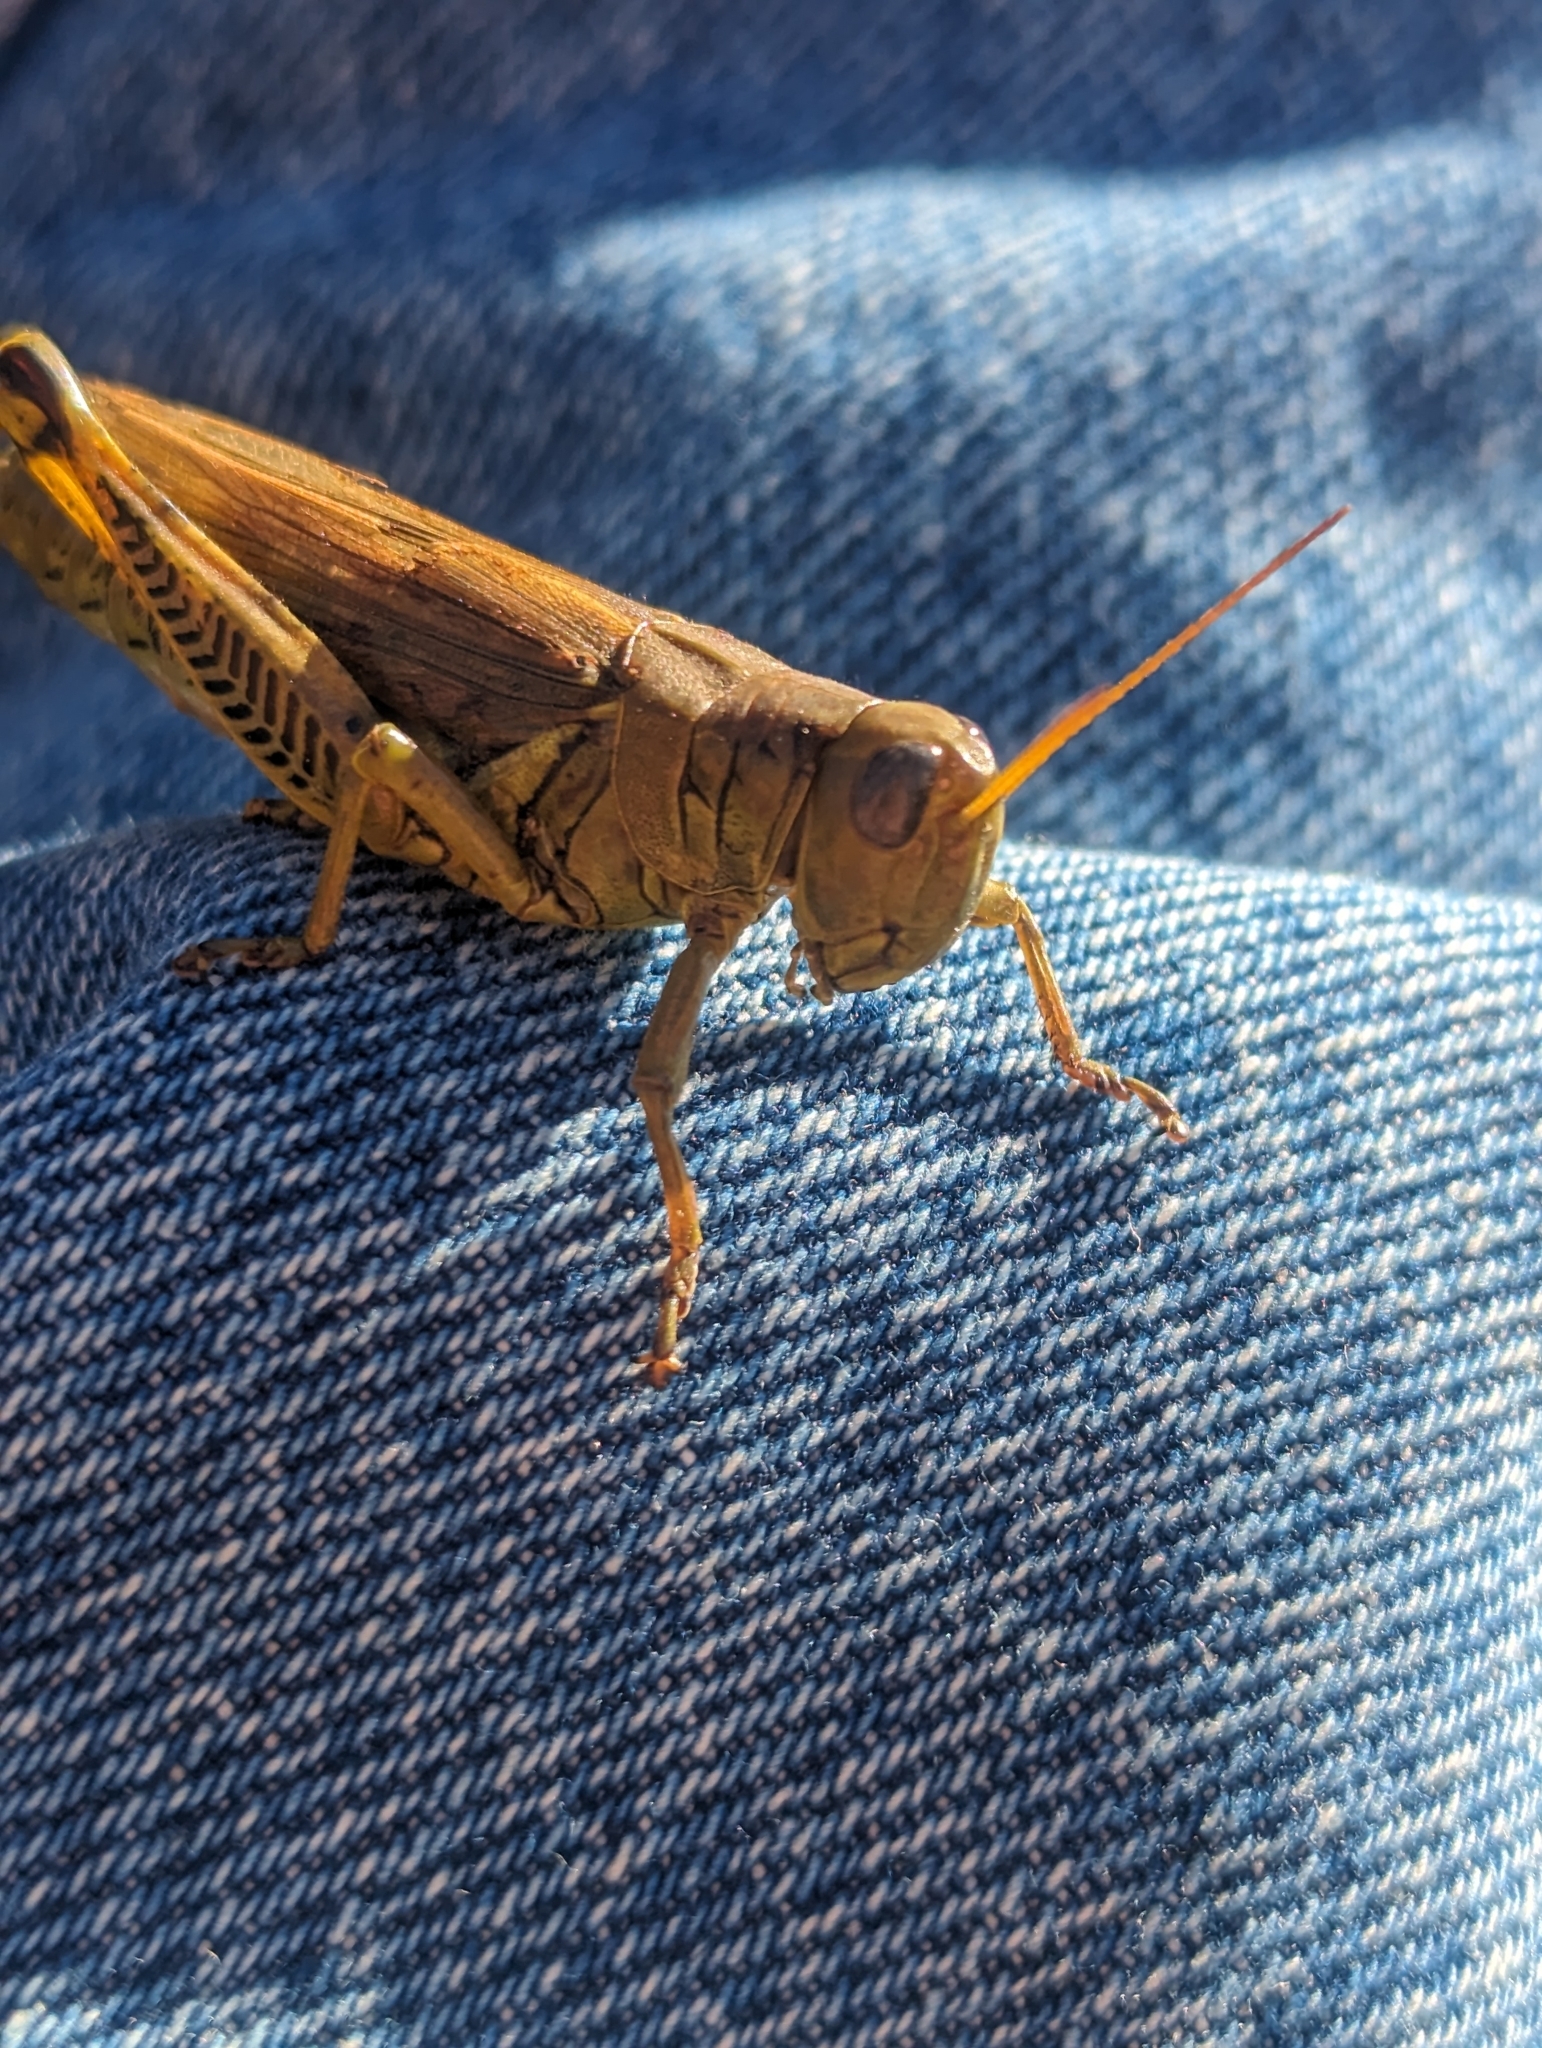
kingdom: Animalia
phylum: Arthropoda
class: Insecta
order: Orthoptera
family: Acrididae
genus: Melanoplus
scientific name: Melanoplus differentialis
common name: Differential grasshopper
